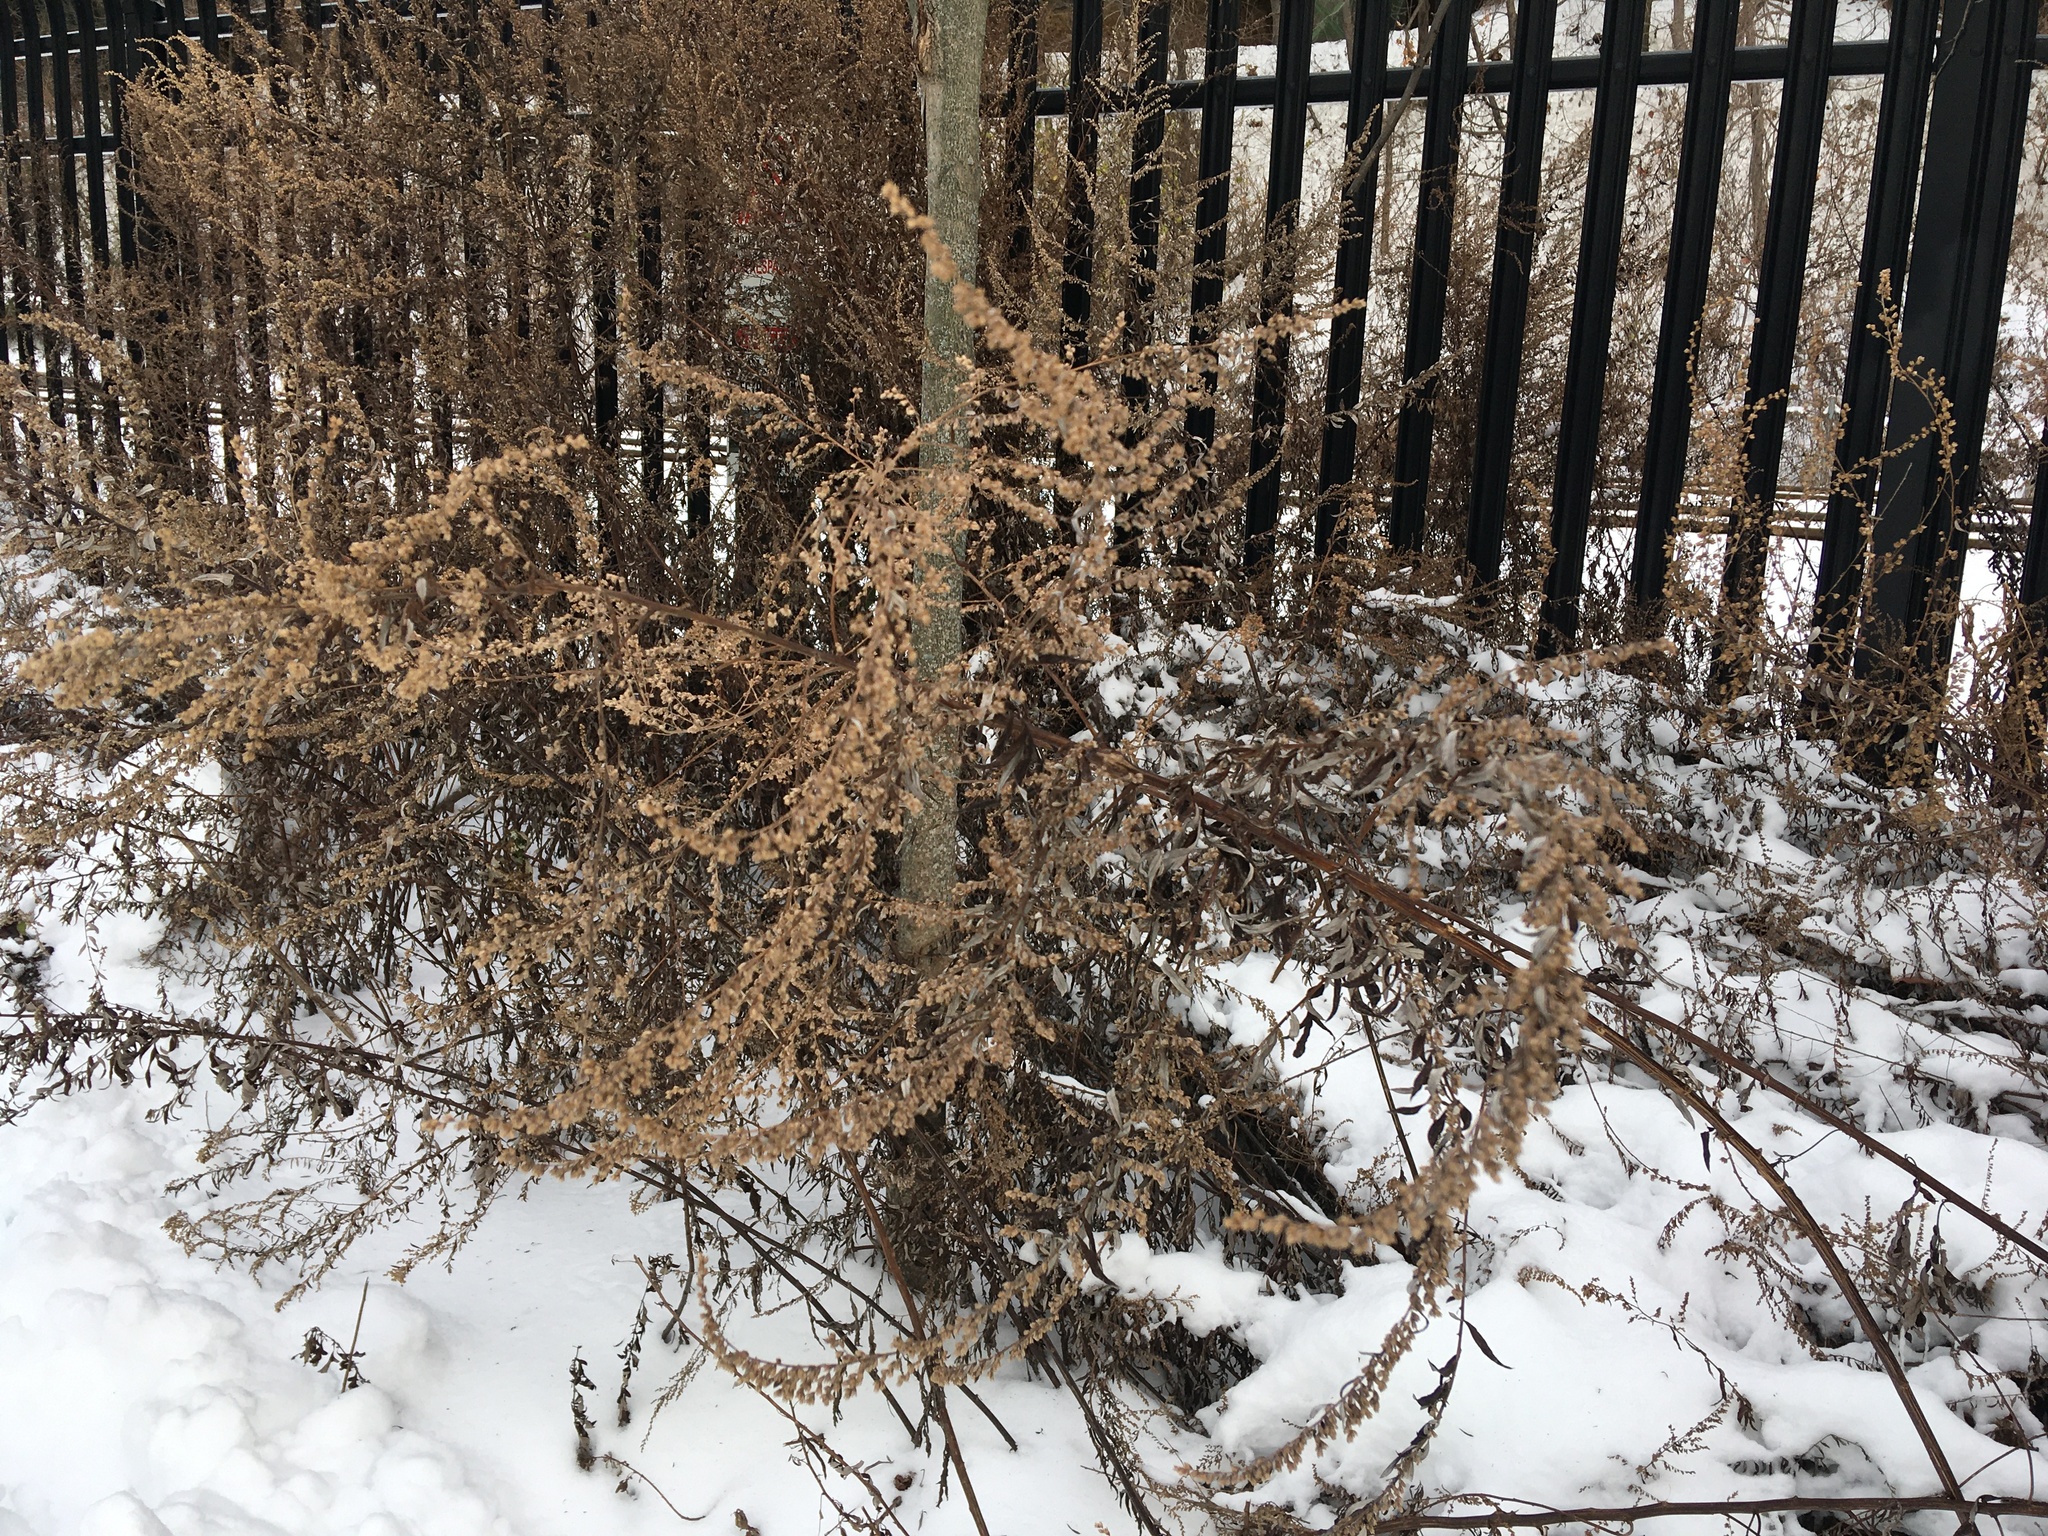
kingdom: Plantae
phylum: Tracheophyta
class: Magnoliopsida
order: Asterales
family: Asteraceae
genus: Artemisia
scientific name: Artemisia vulgaris
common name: Mugwort
